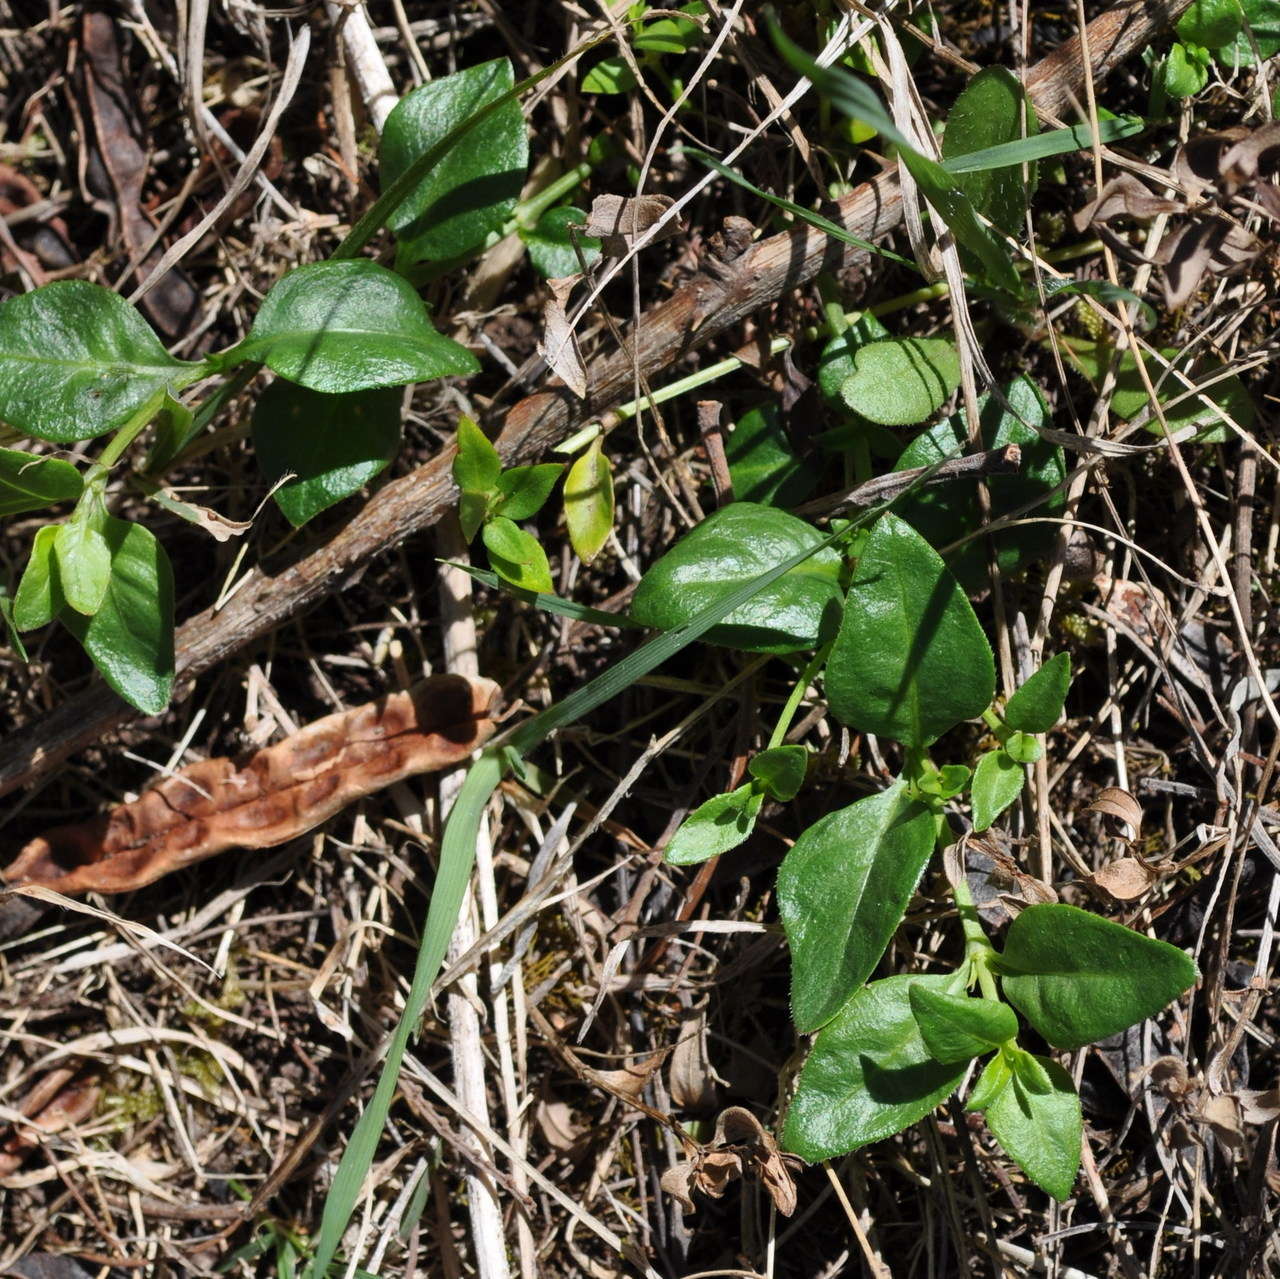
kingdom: Plantae
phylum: Tracheophyta
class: Magnoliopsida
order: Gentianales
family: Rubiaceae
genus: Opercularia
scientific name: Opercularia ovata
